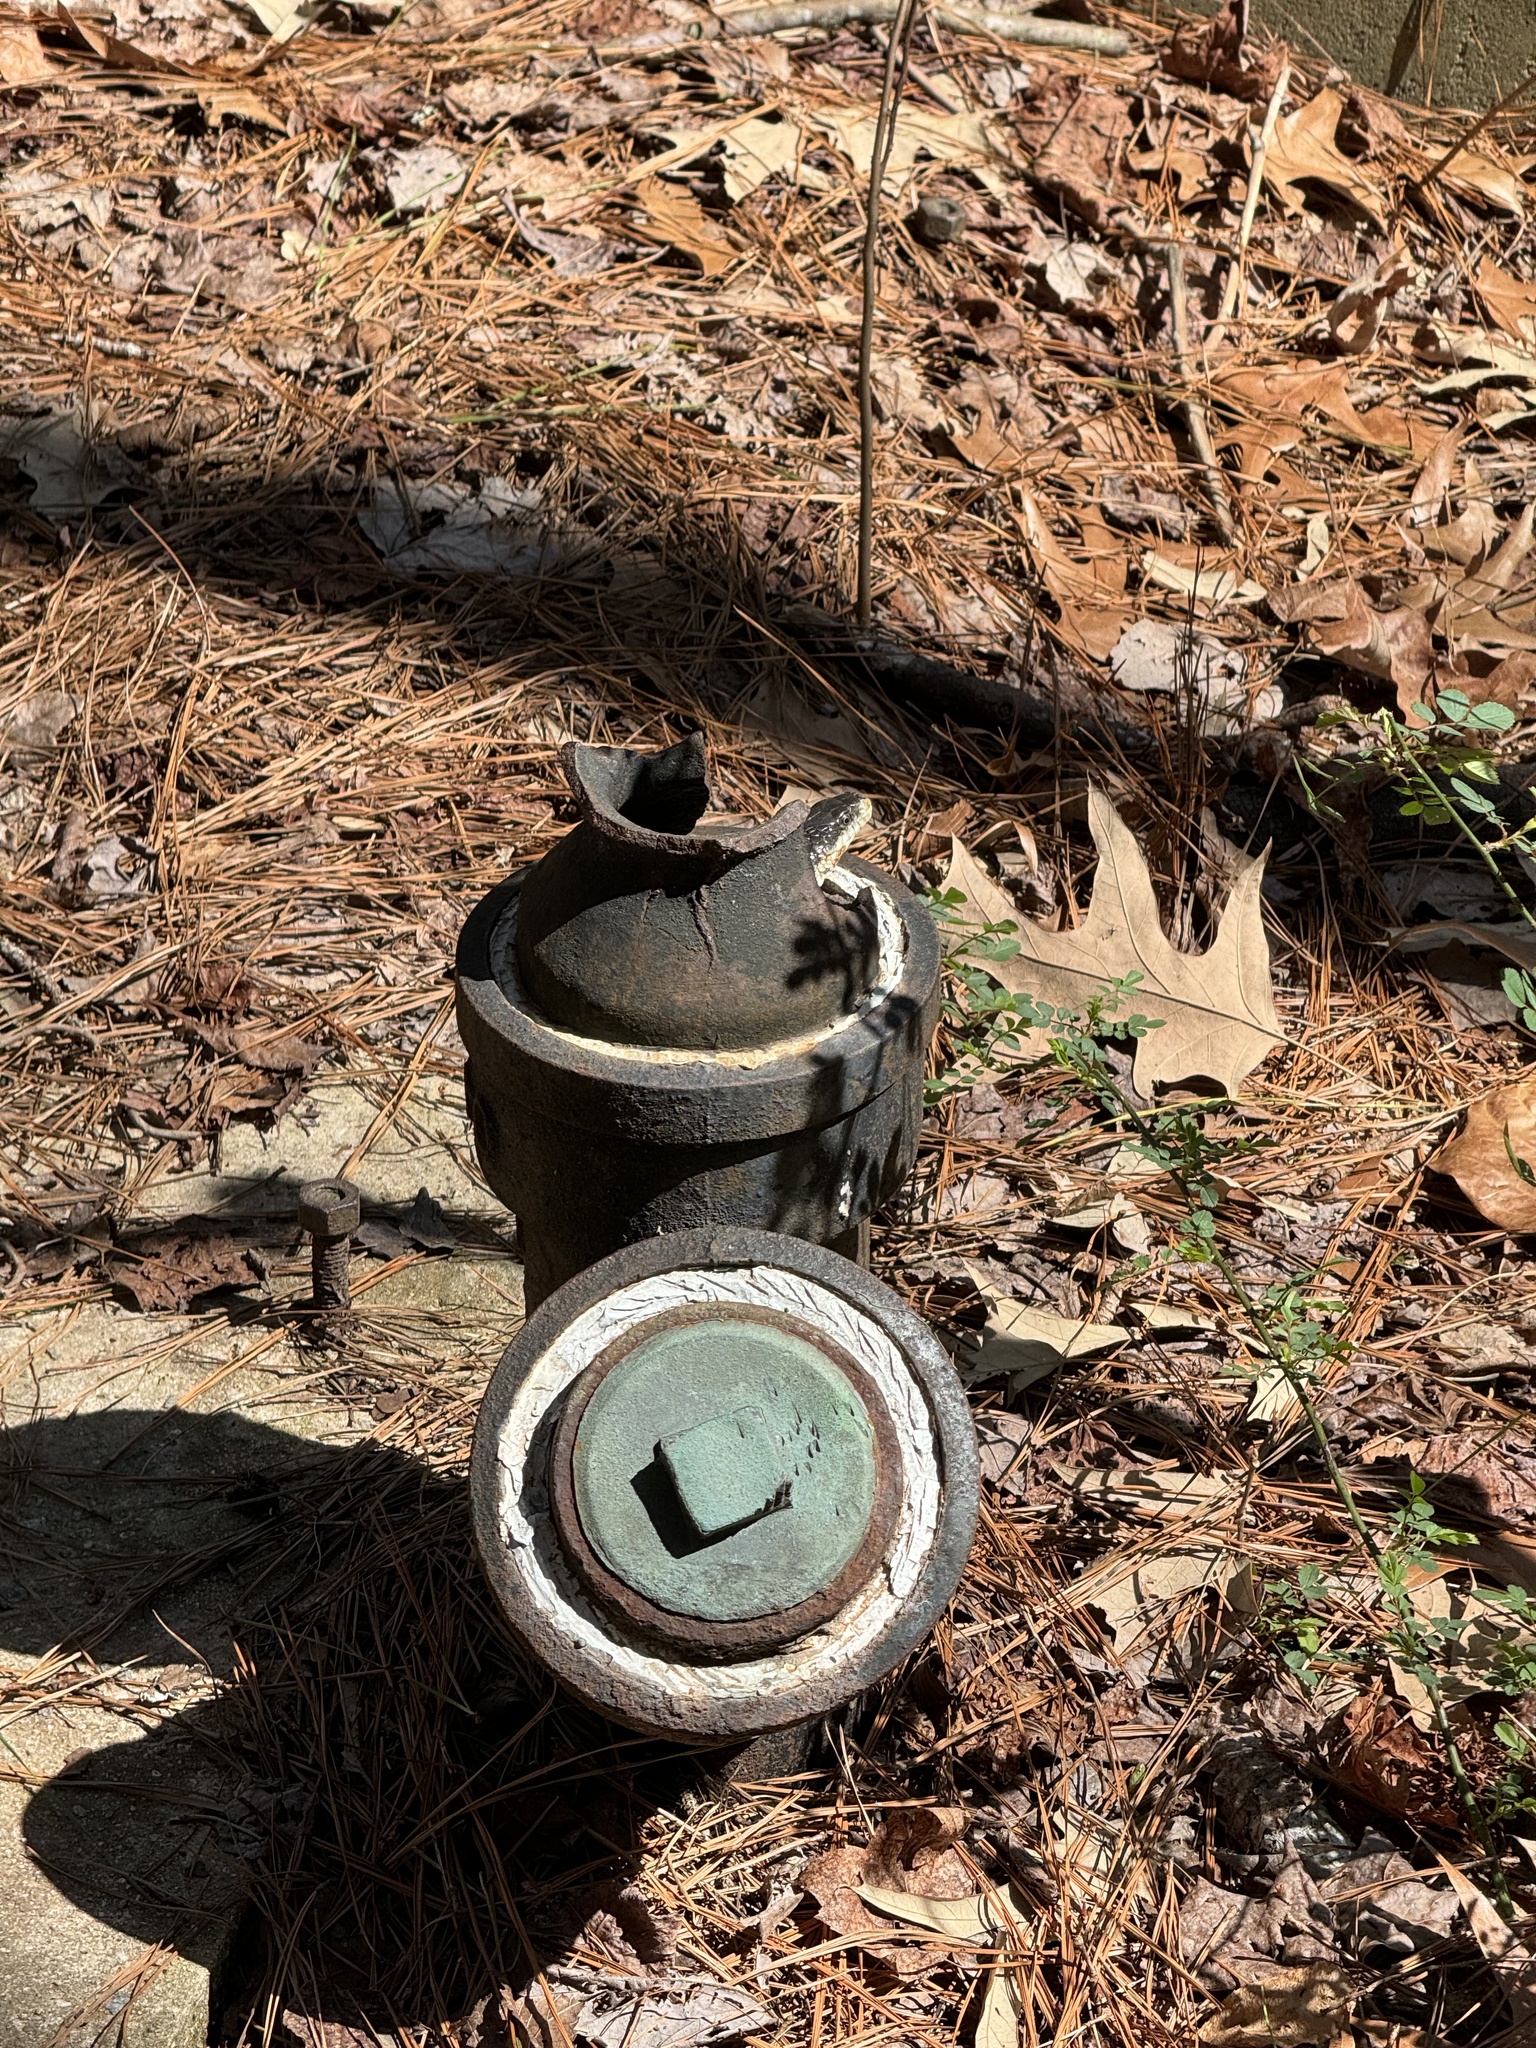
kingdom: Animalia
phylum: Chordata
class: Squamata
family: Colubridae
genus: Pantherophis
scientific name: Pantherophis alleghaniensis
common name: Eastern rat snake
